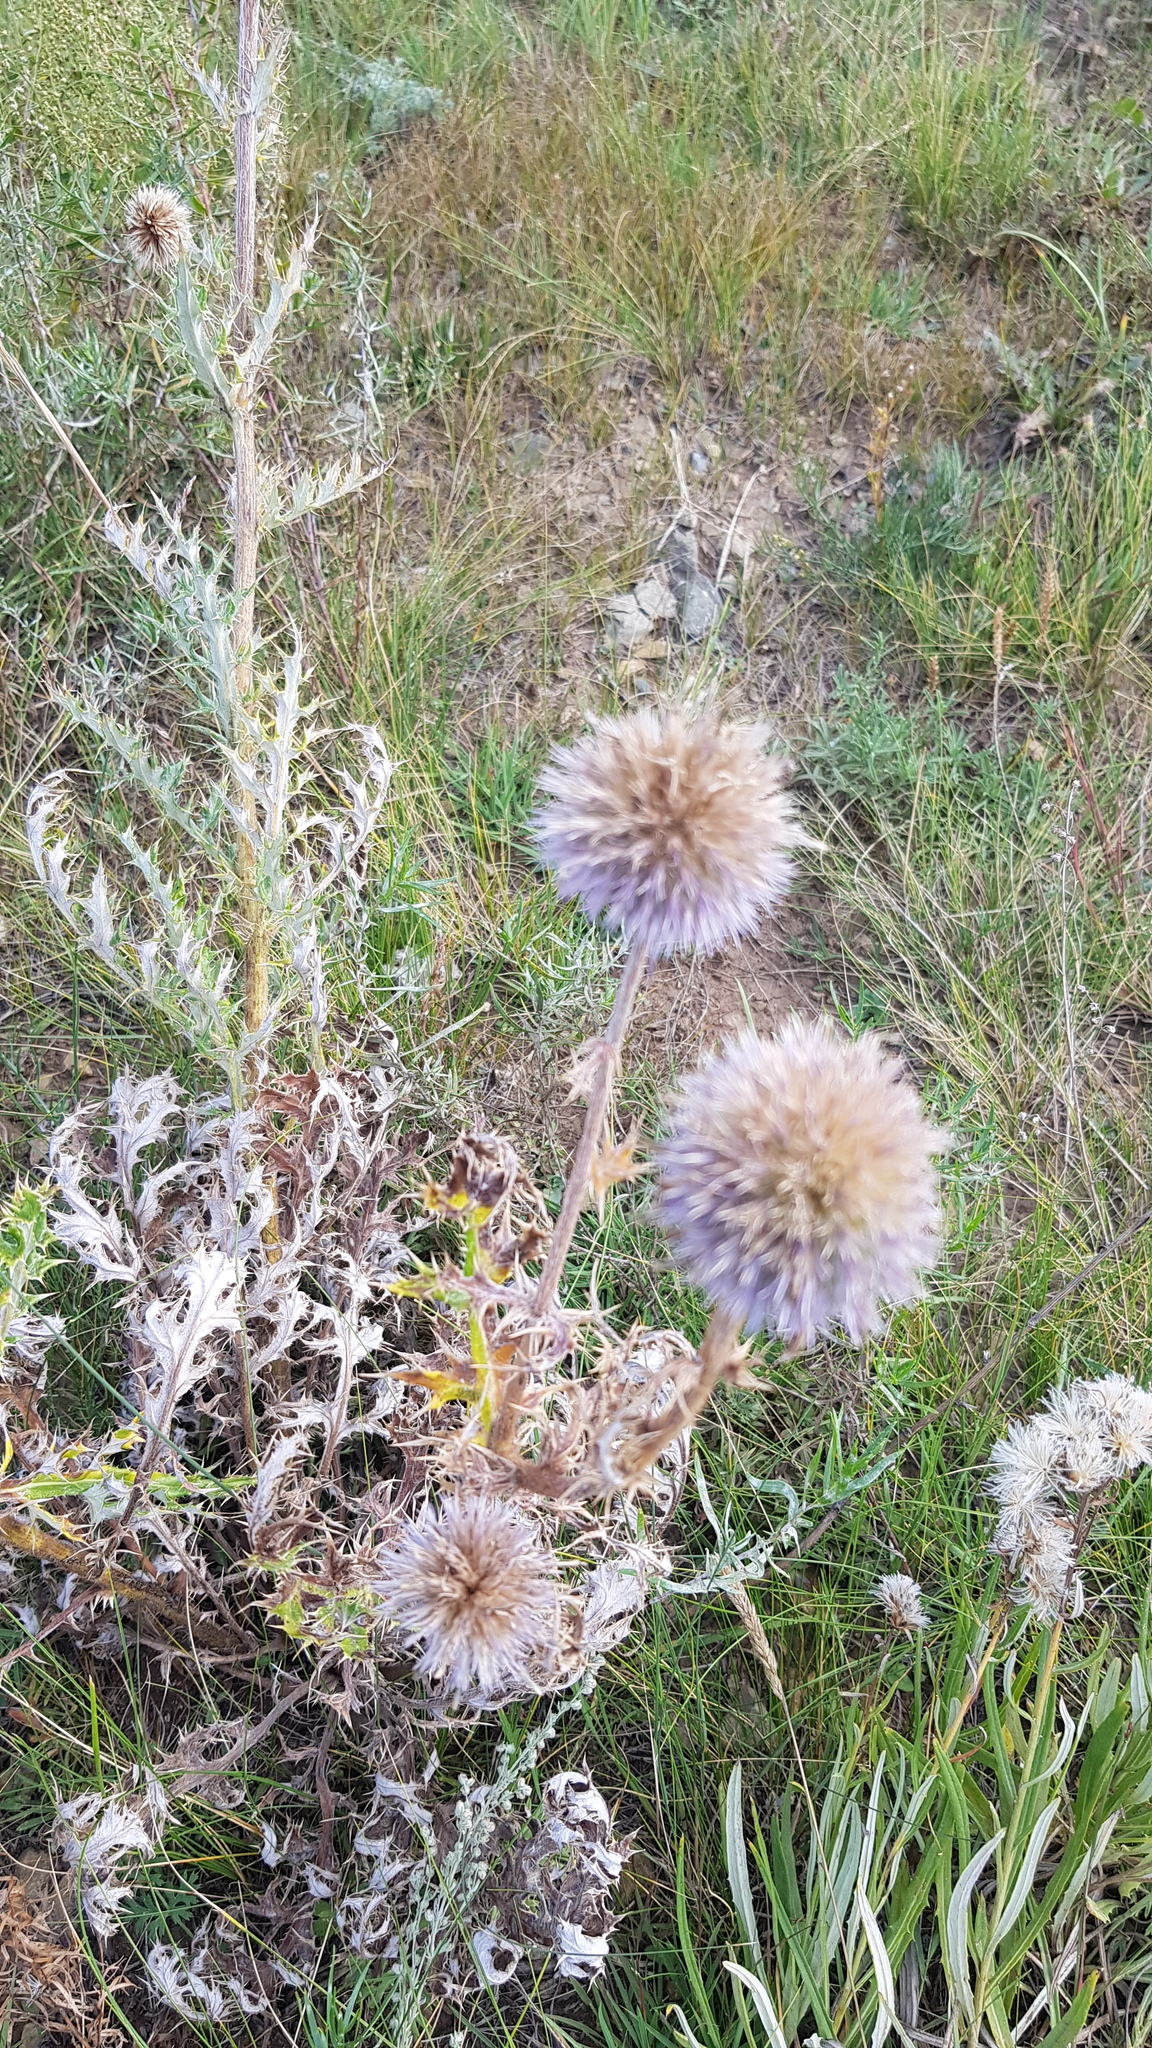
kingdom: Plantae
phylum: Tracheophyta
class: Magnoliopsida
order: Asterales
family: Asteraceae
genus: Echinops
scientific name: Echinops davuricus
